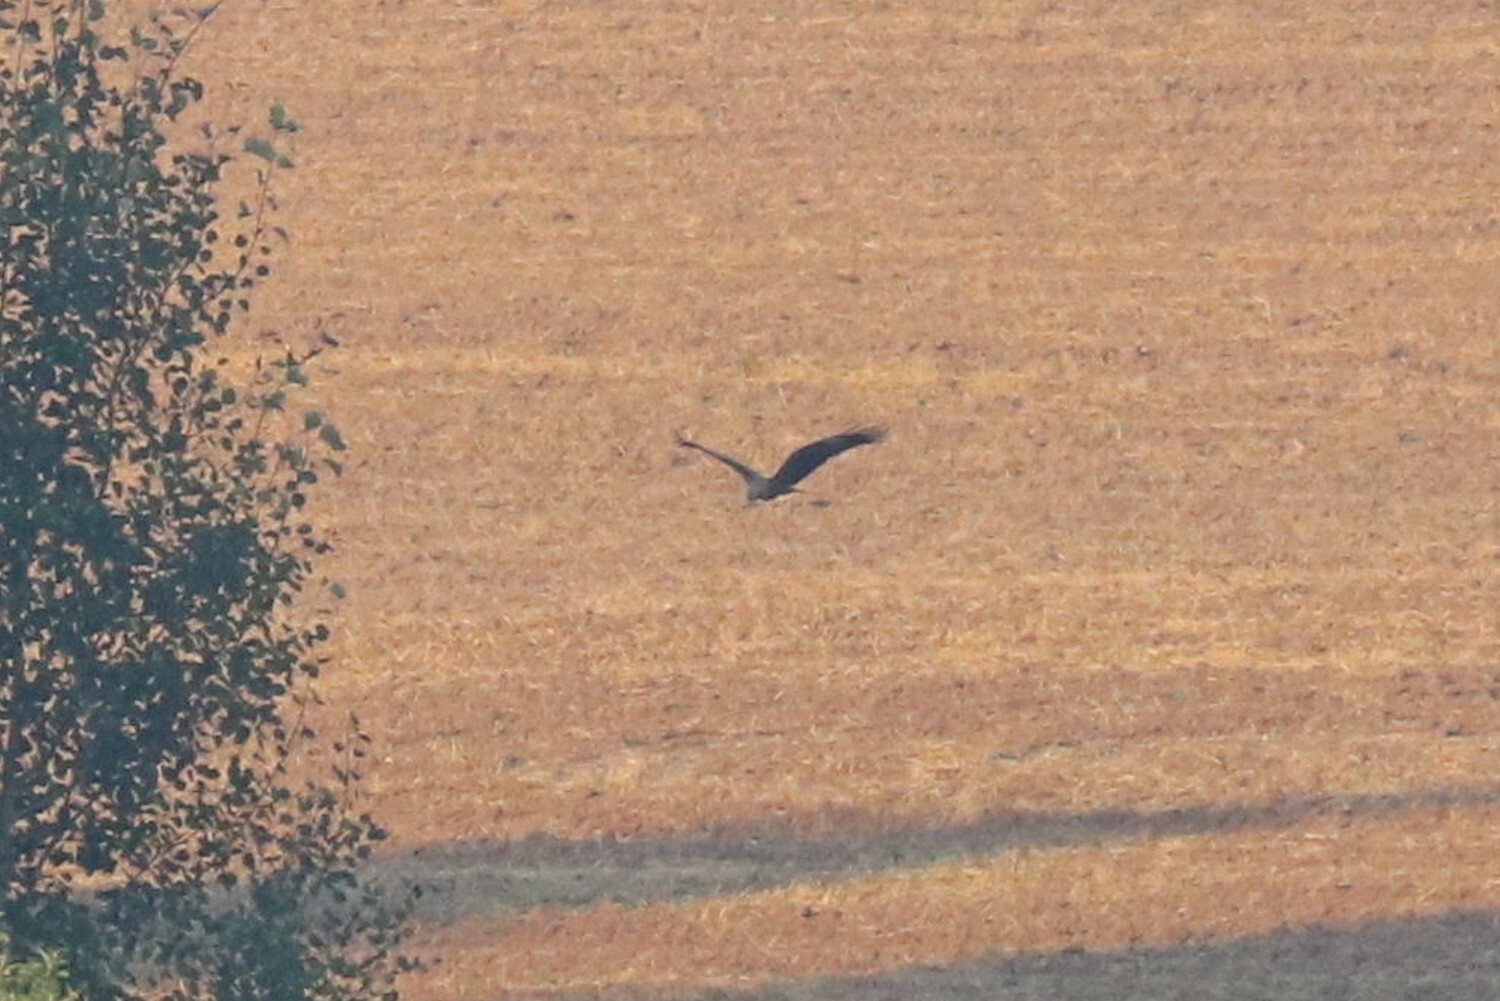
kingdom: Animalia
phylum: Chordata
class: Aves
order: Accipitriformes
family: Accipitridae
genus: Milvus
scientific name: Milvus migrans
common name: Black kite
